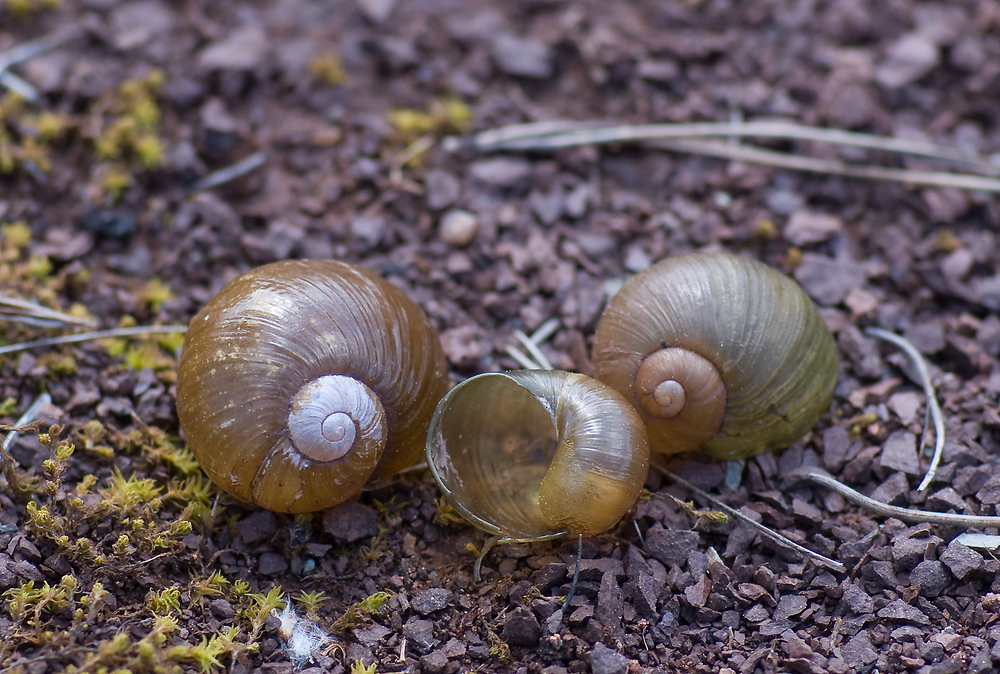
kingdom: Animalia
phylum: Mollusca
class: Gastropoda
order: Stylommatophora
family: Helicidae
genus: Cantareus
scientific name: Cantareus apertus
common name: Green gardensnail
